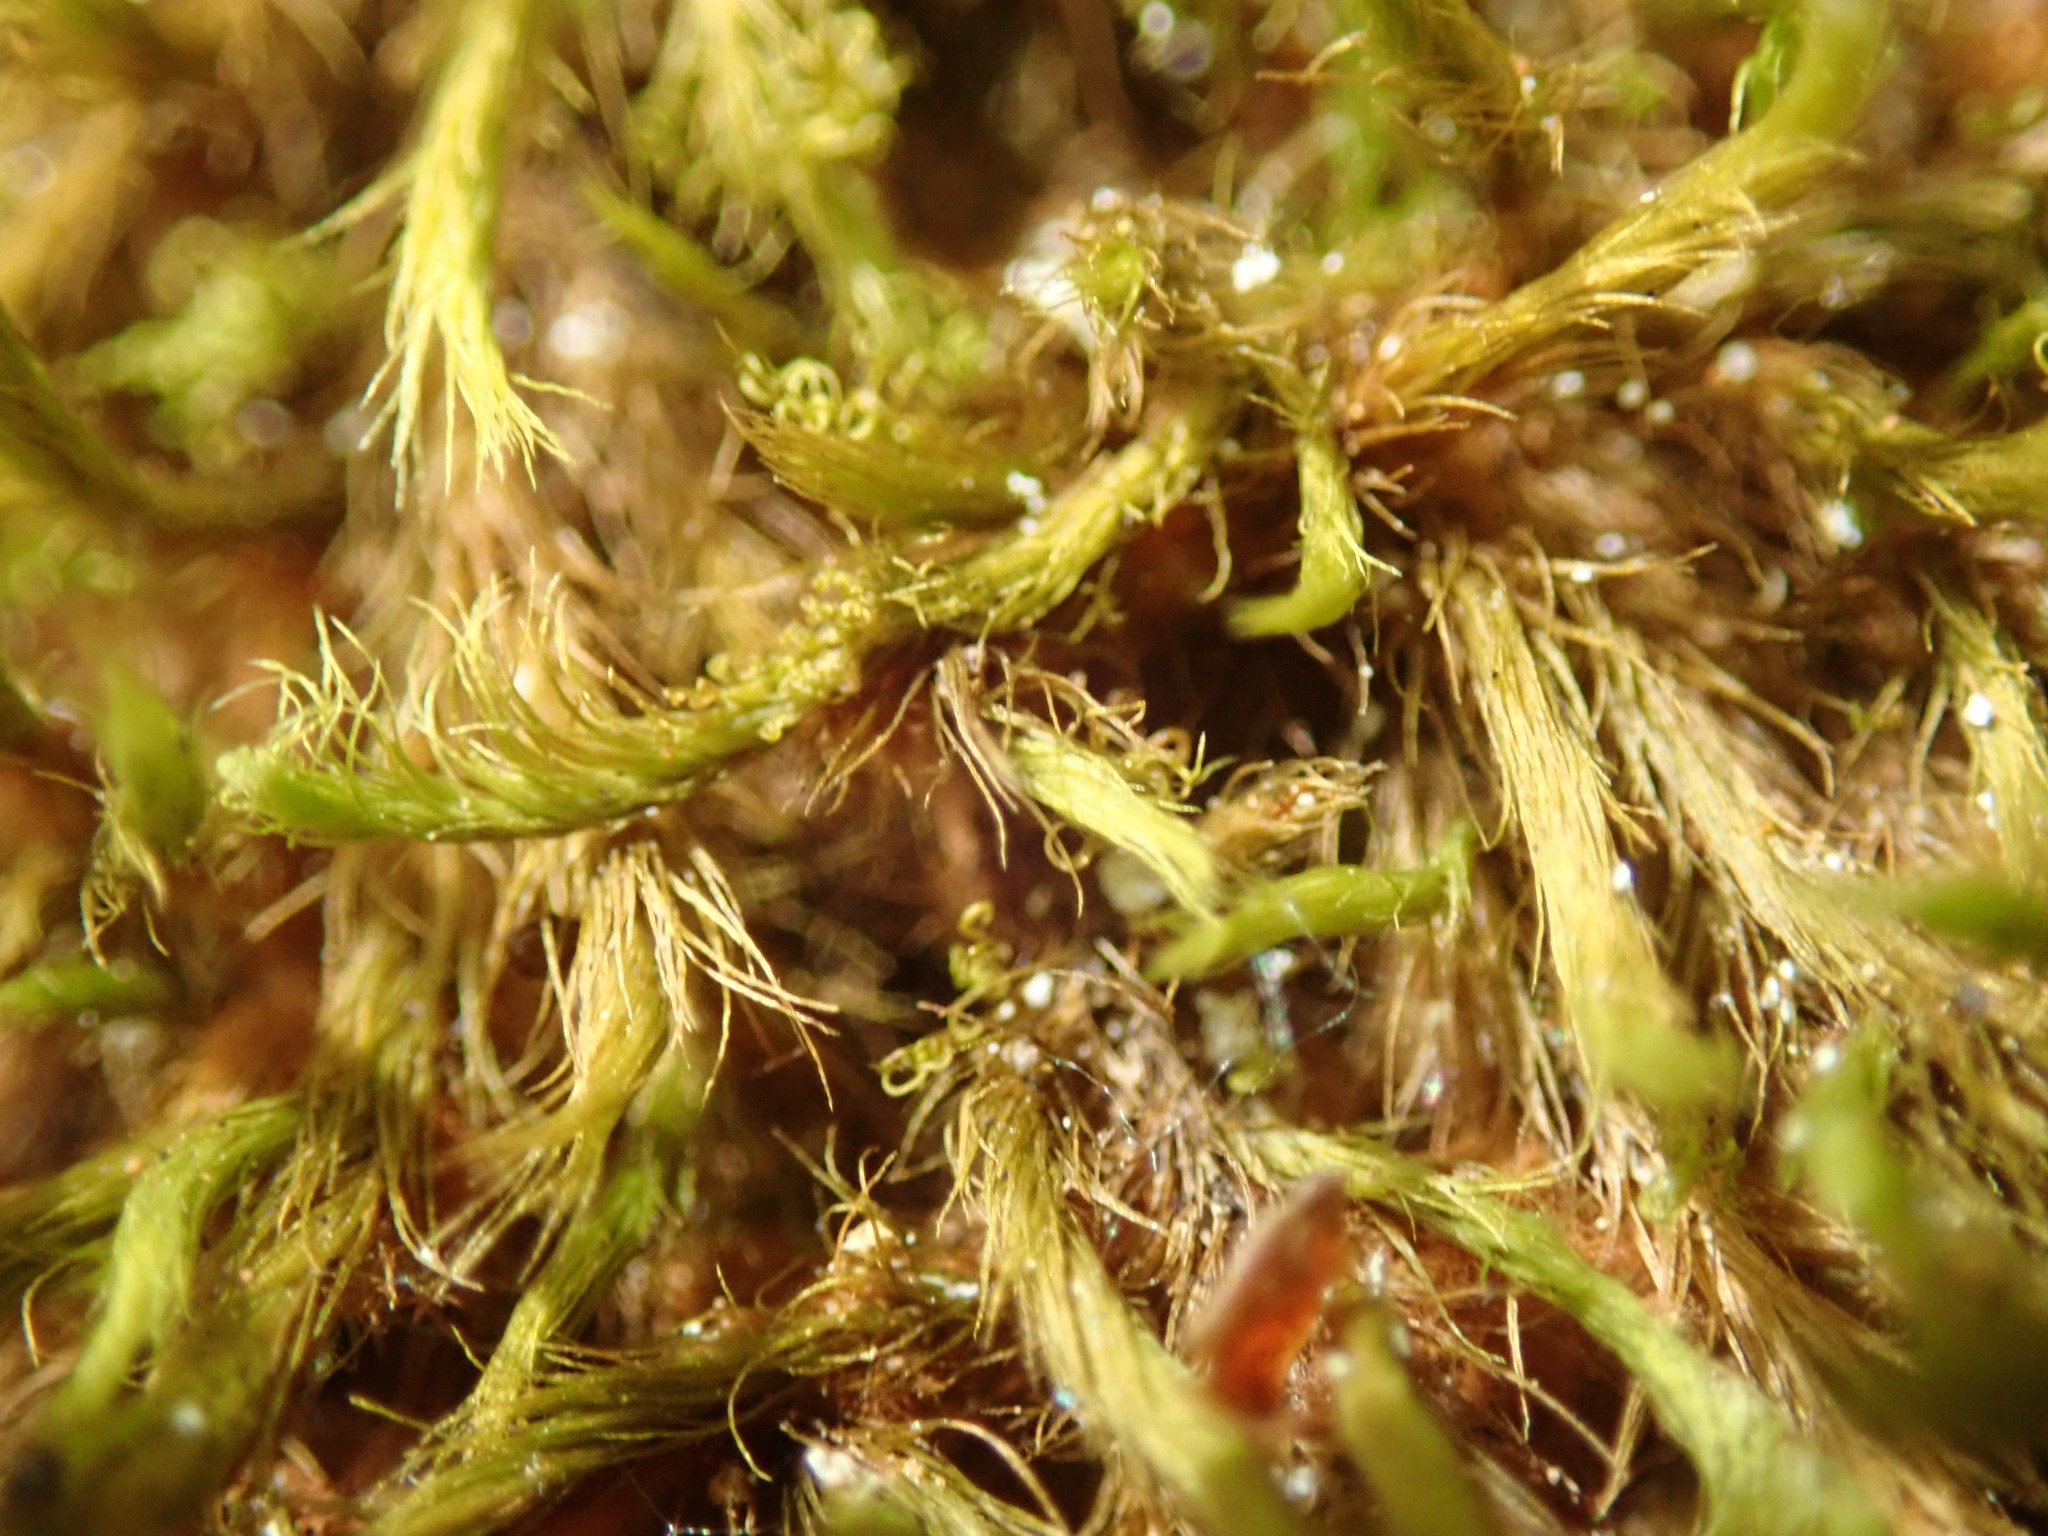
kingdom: Plantae
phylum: Bryophyta
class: Bryopsida
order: Bartramiales
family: Bartramiaceae
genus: Anacolia
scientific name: Anacolia menziesii
